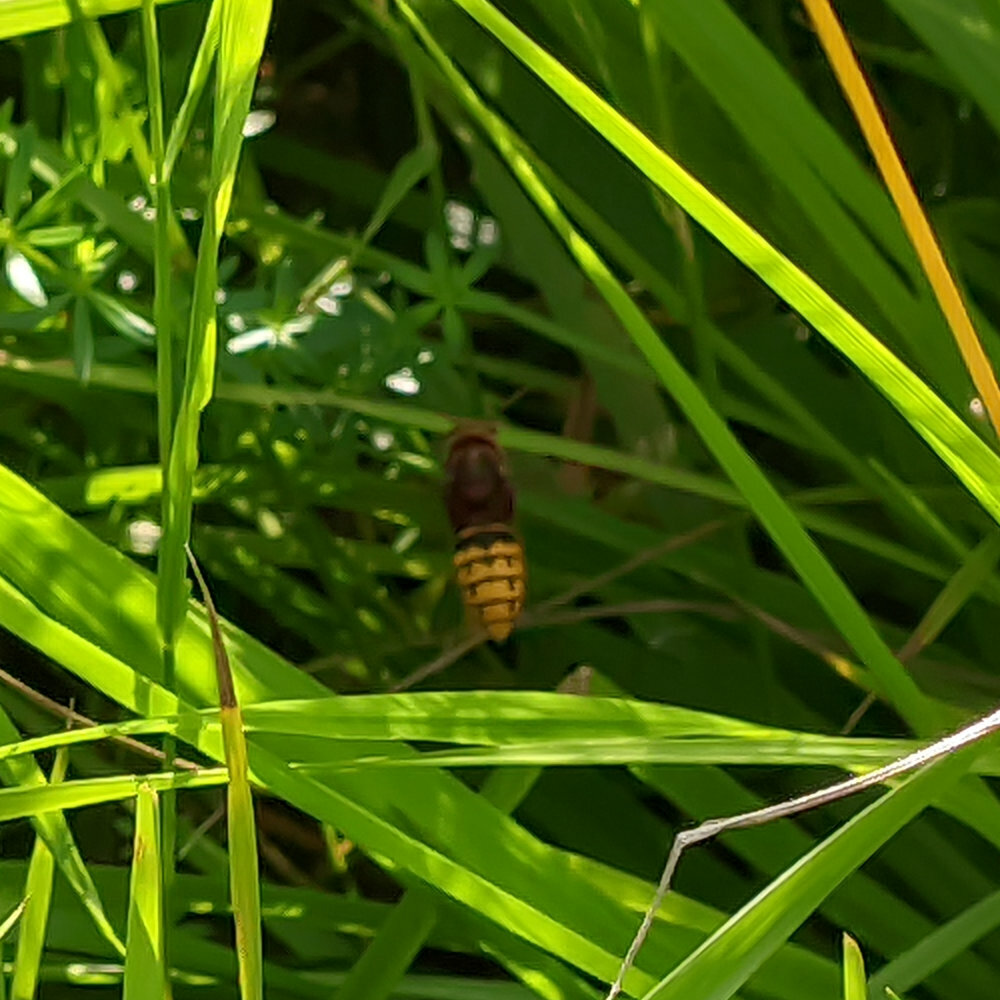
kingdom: Animalia
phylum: Arthropoda
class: Insecta
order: Hymenoptera
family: Vespidae
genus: Vespa
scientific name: Vespa crabro
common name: Hornet
